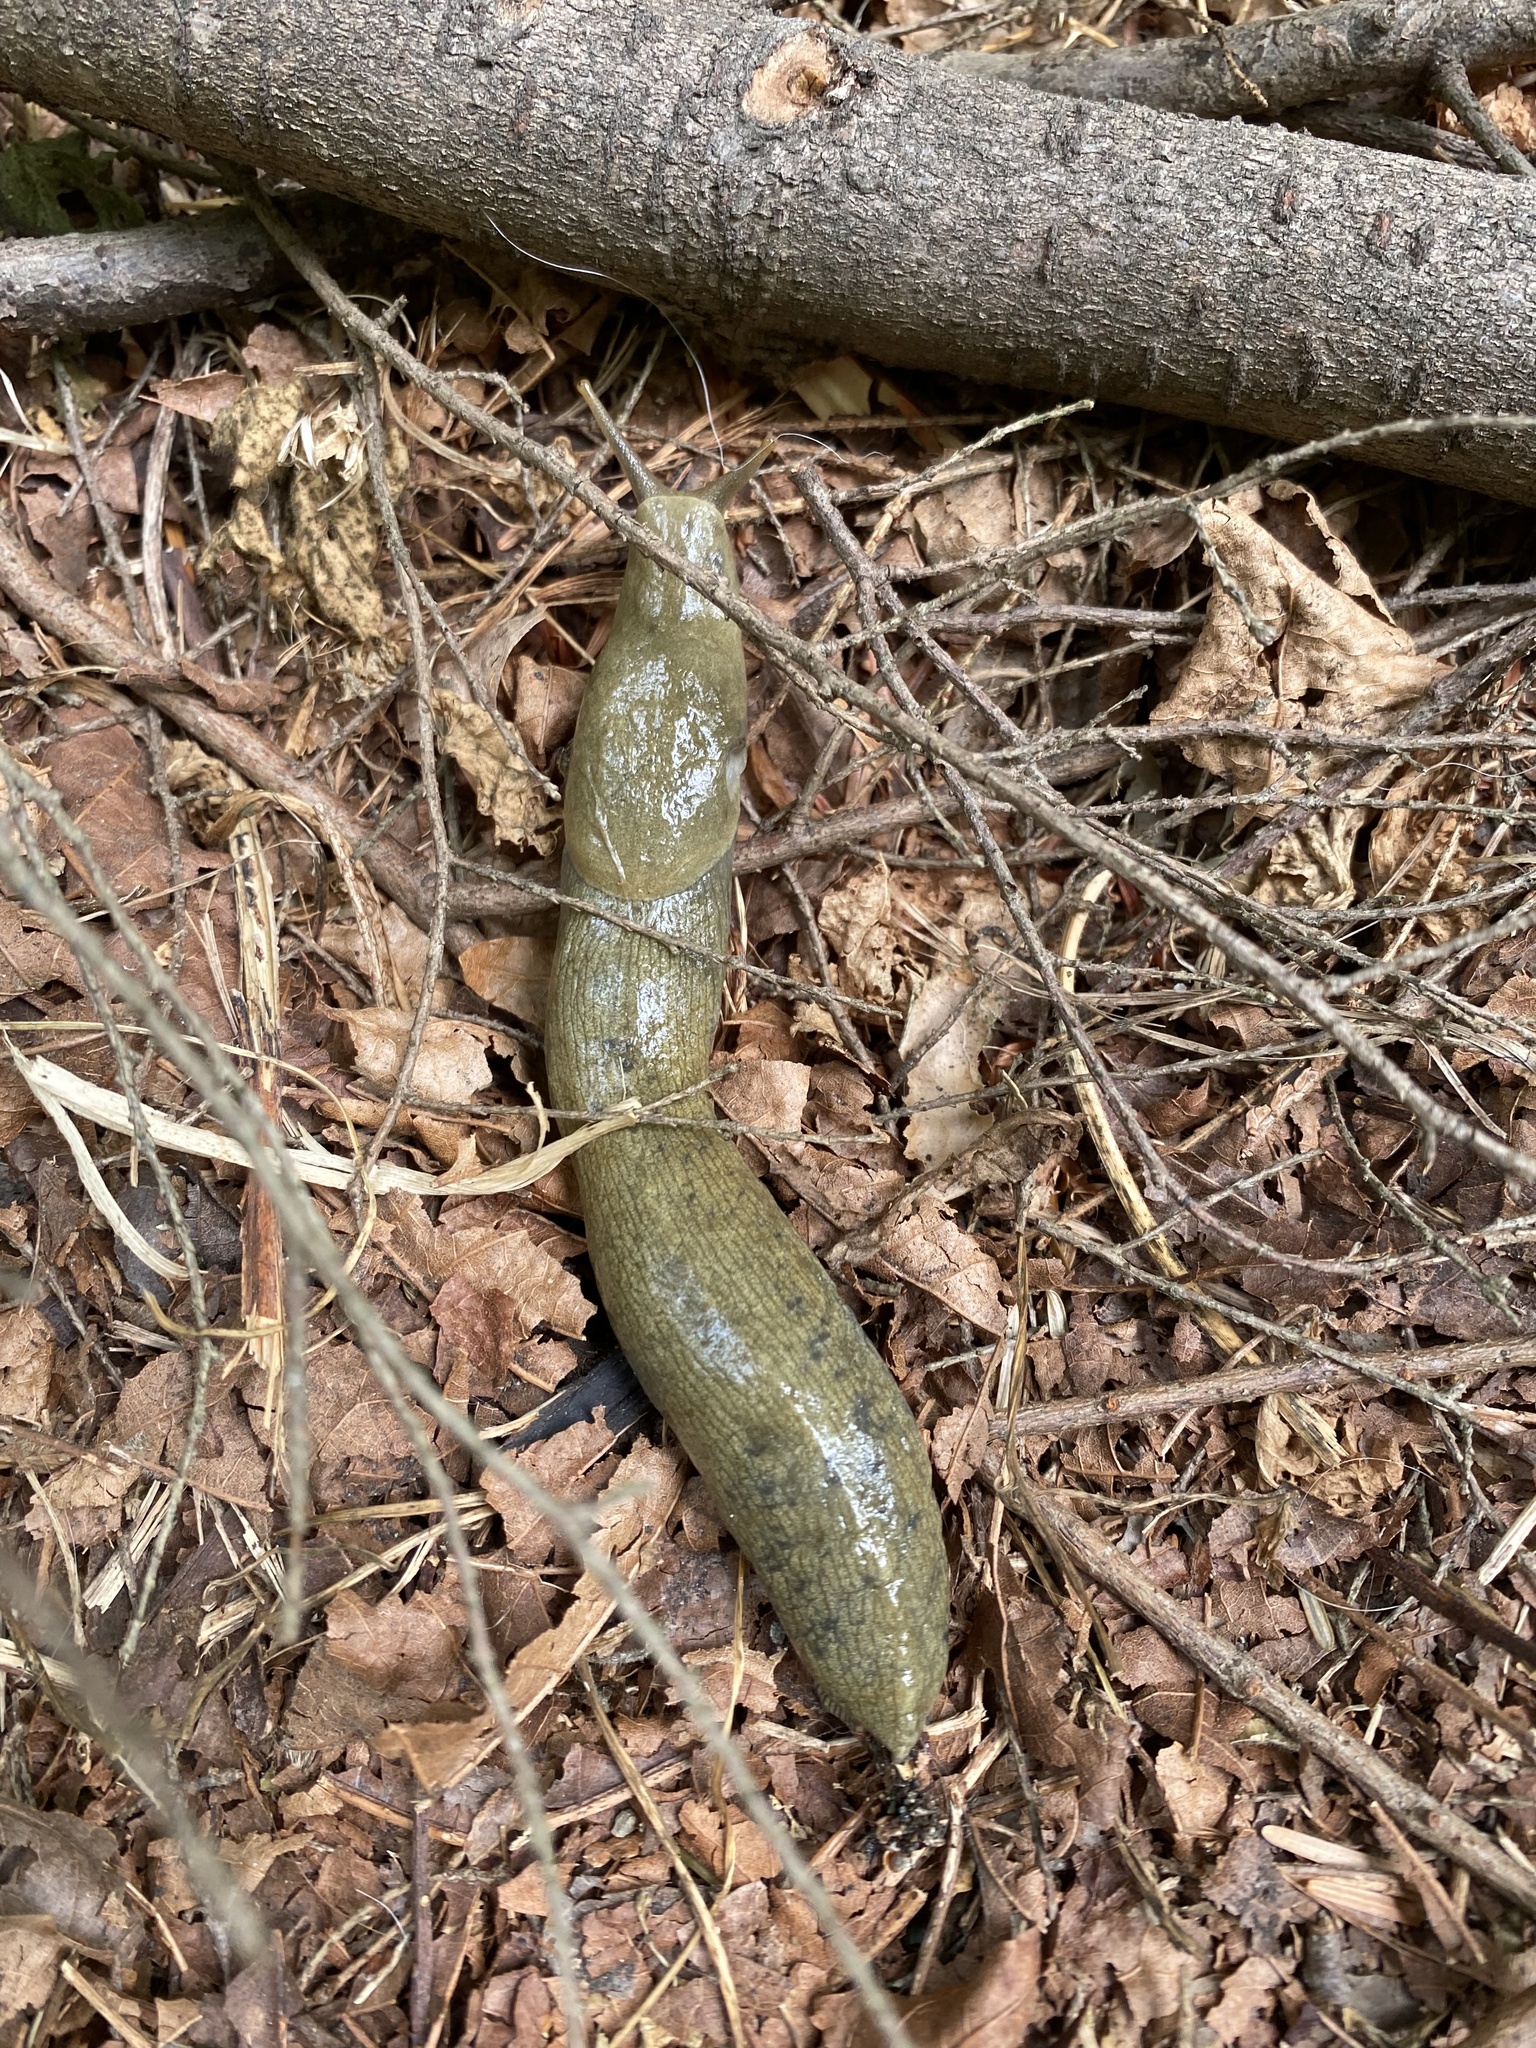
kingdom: Animalia
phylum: Mollusca
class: Gastropoda
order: Stylommatophora
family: Ariolimacidae
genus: Ariolimax
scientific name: Ariolimax columbianus
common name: Pacific banana slug
